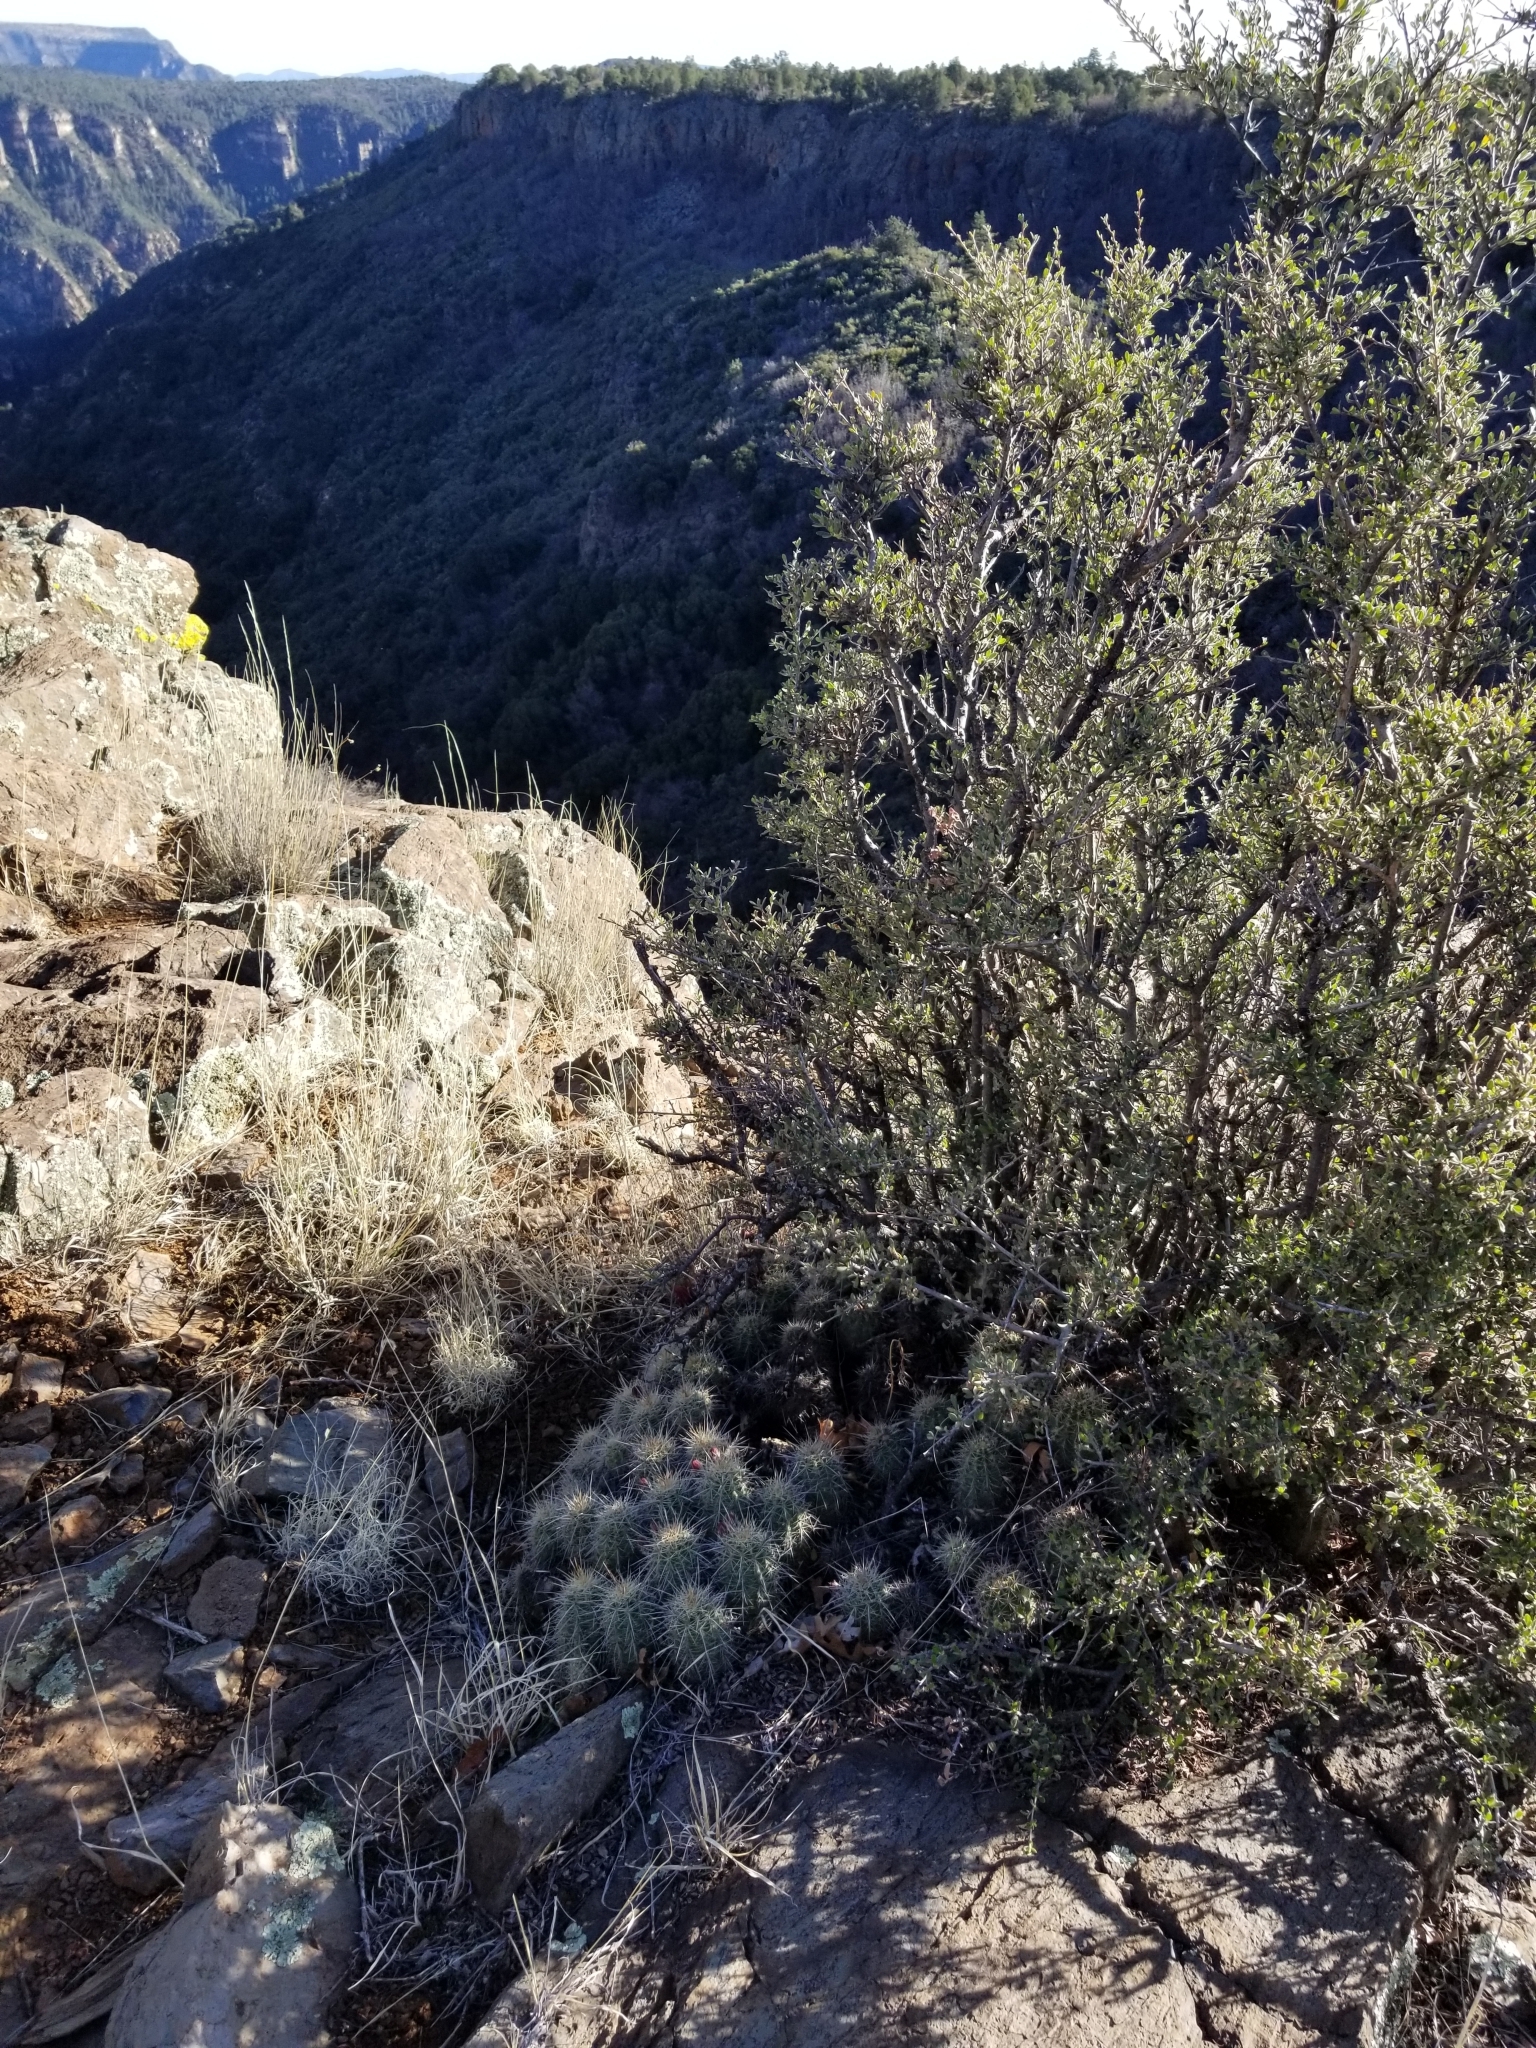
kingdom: Plantae
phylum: Tracheophyta
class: Magnoliopsida
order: Caryophyllales
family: Cactaceae
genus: Echinocereus
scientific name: Echinocereus bakeri
